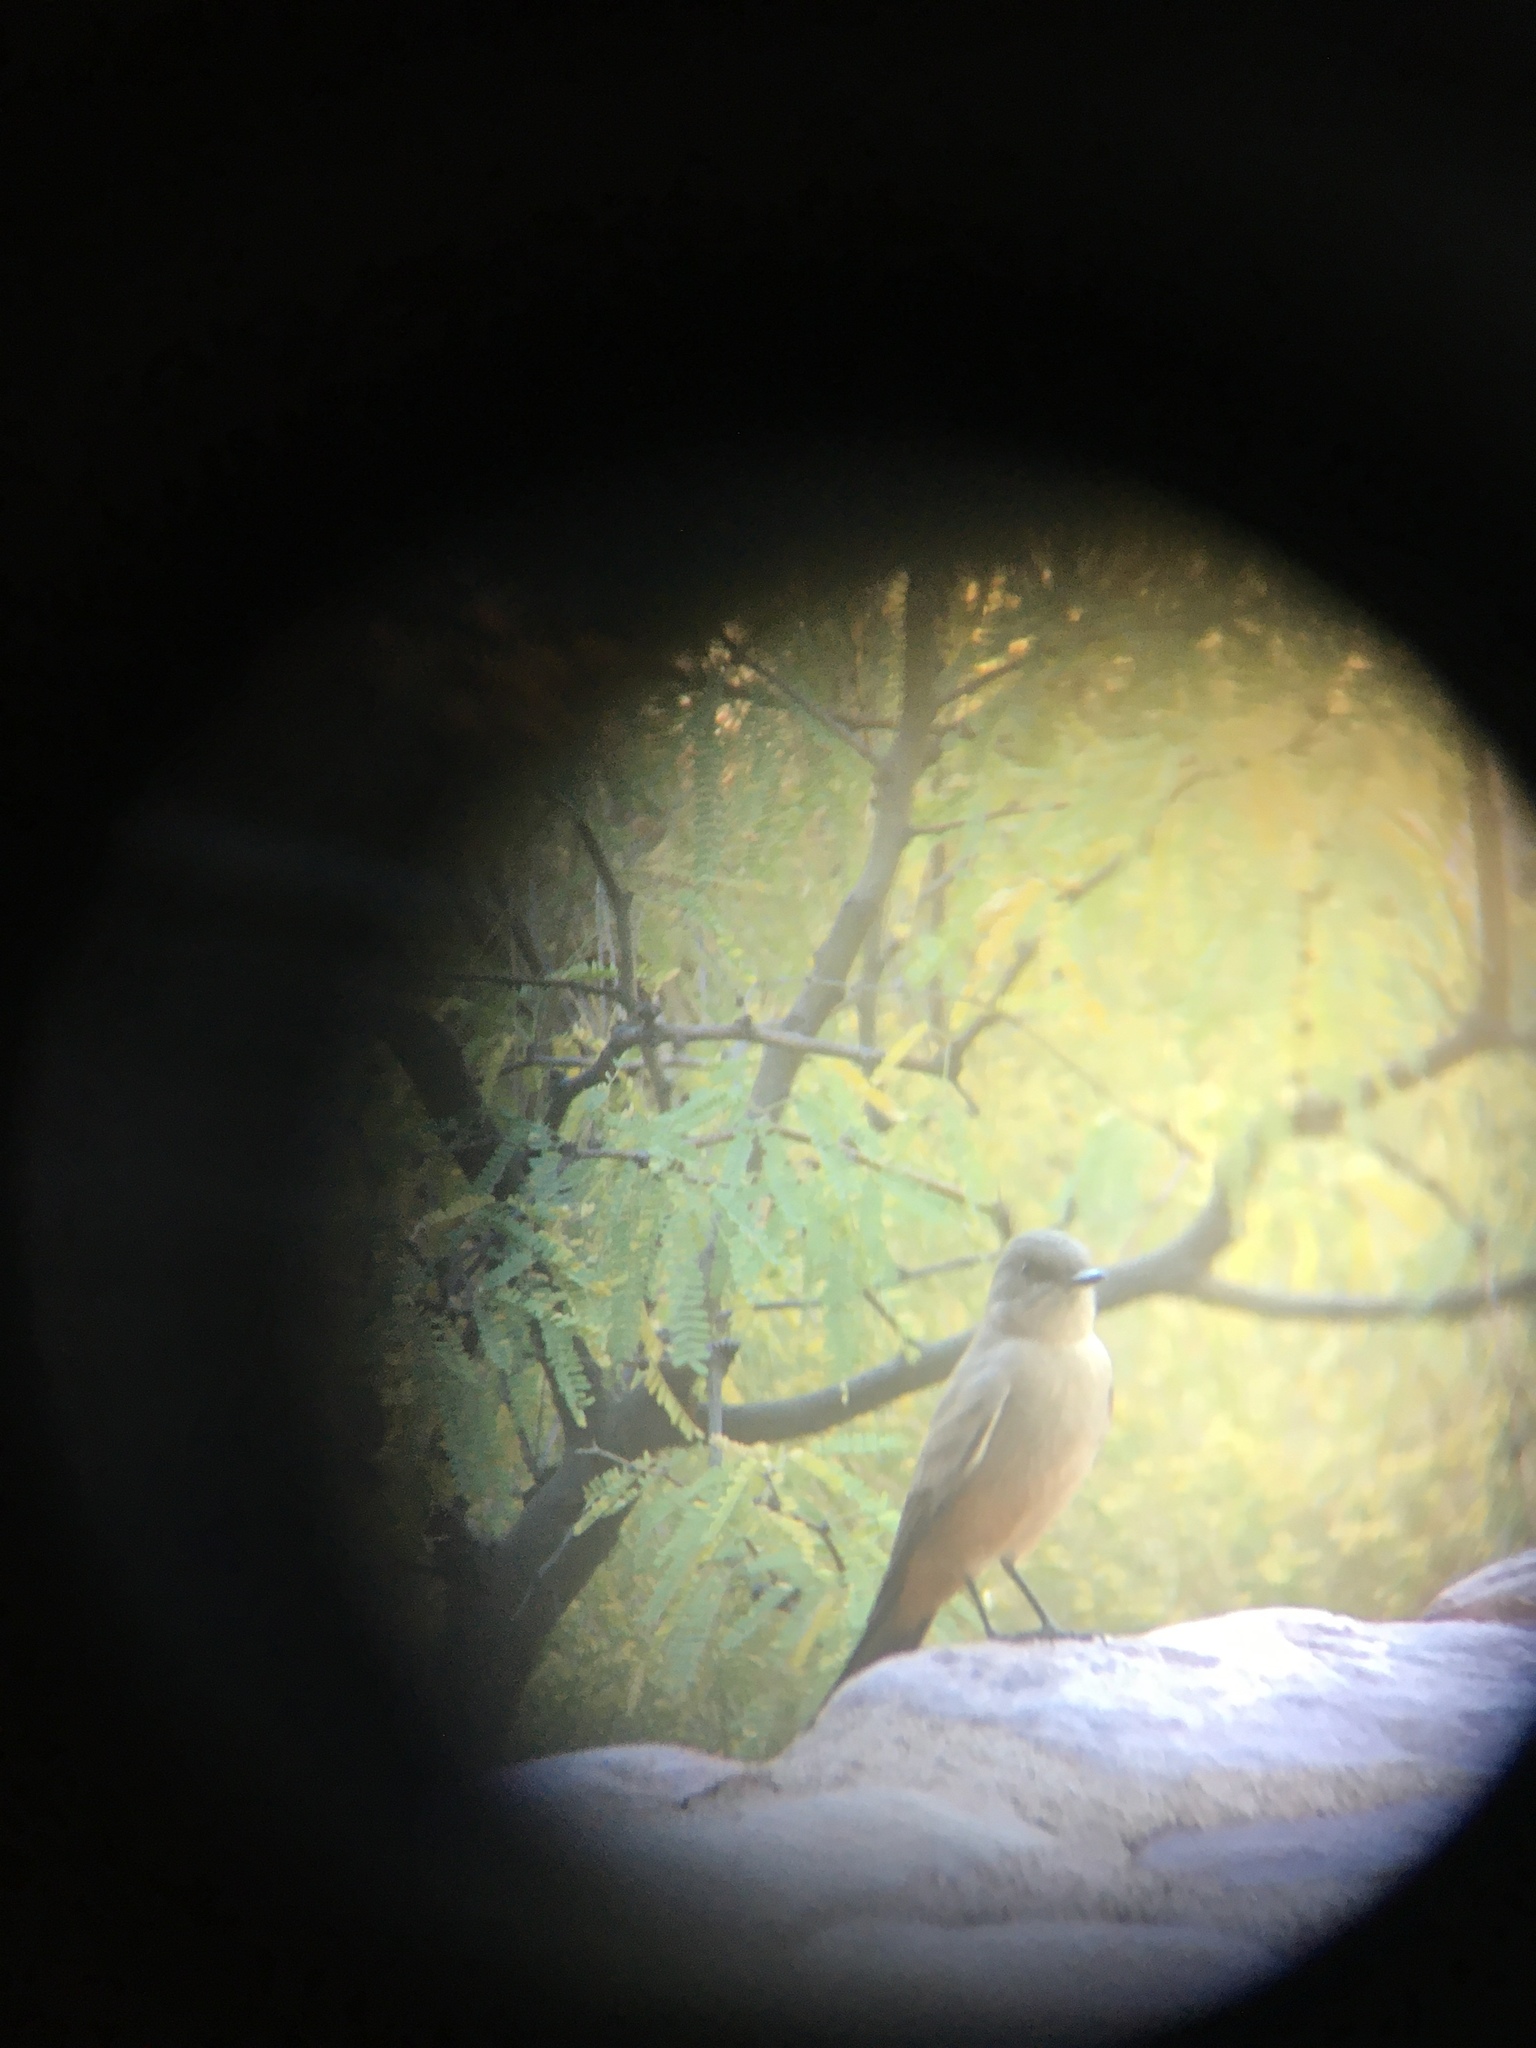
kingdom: Animalia
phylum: Chordata
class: Aves
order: Passeriformes
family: Tyrannidae
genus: Sayornis
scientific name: Sayornis saya
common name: Say's phoebe
